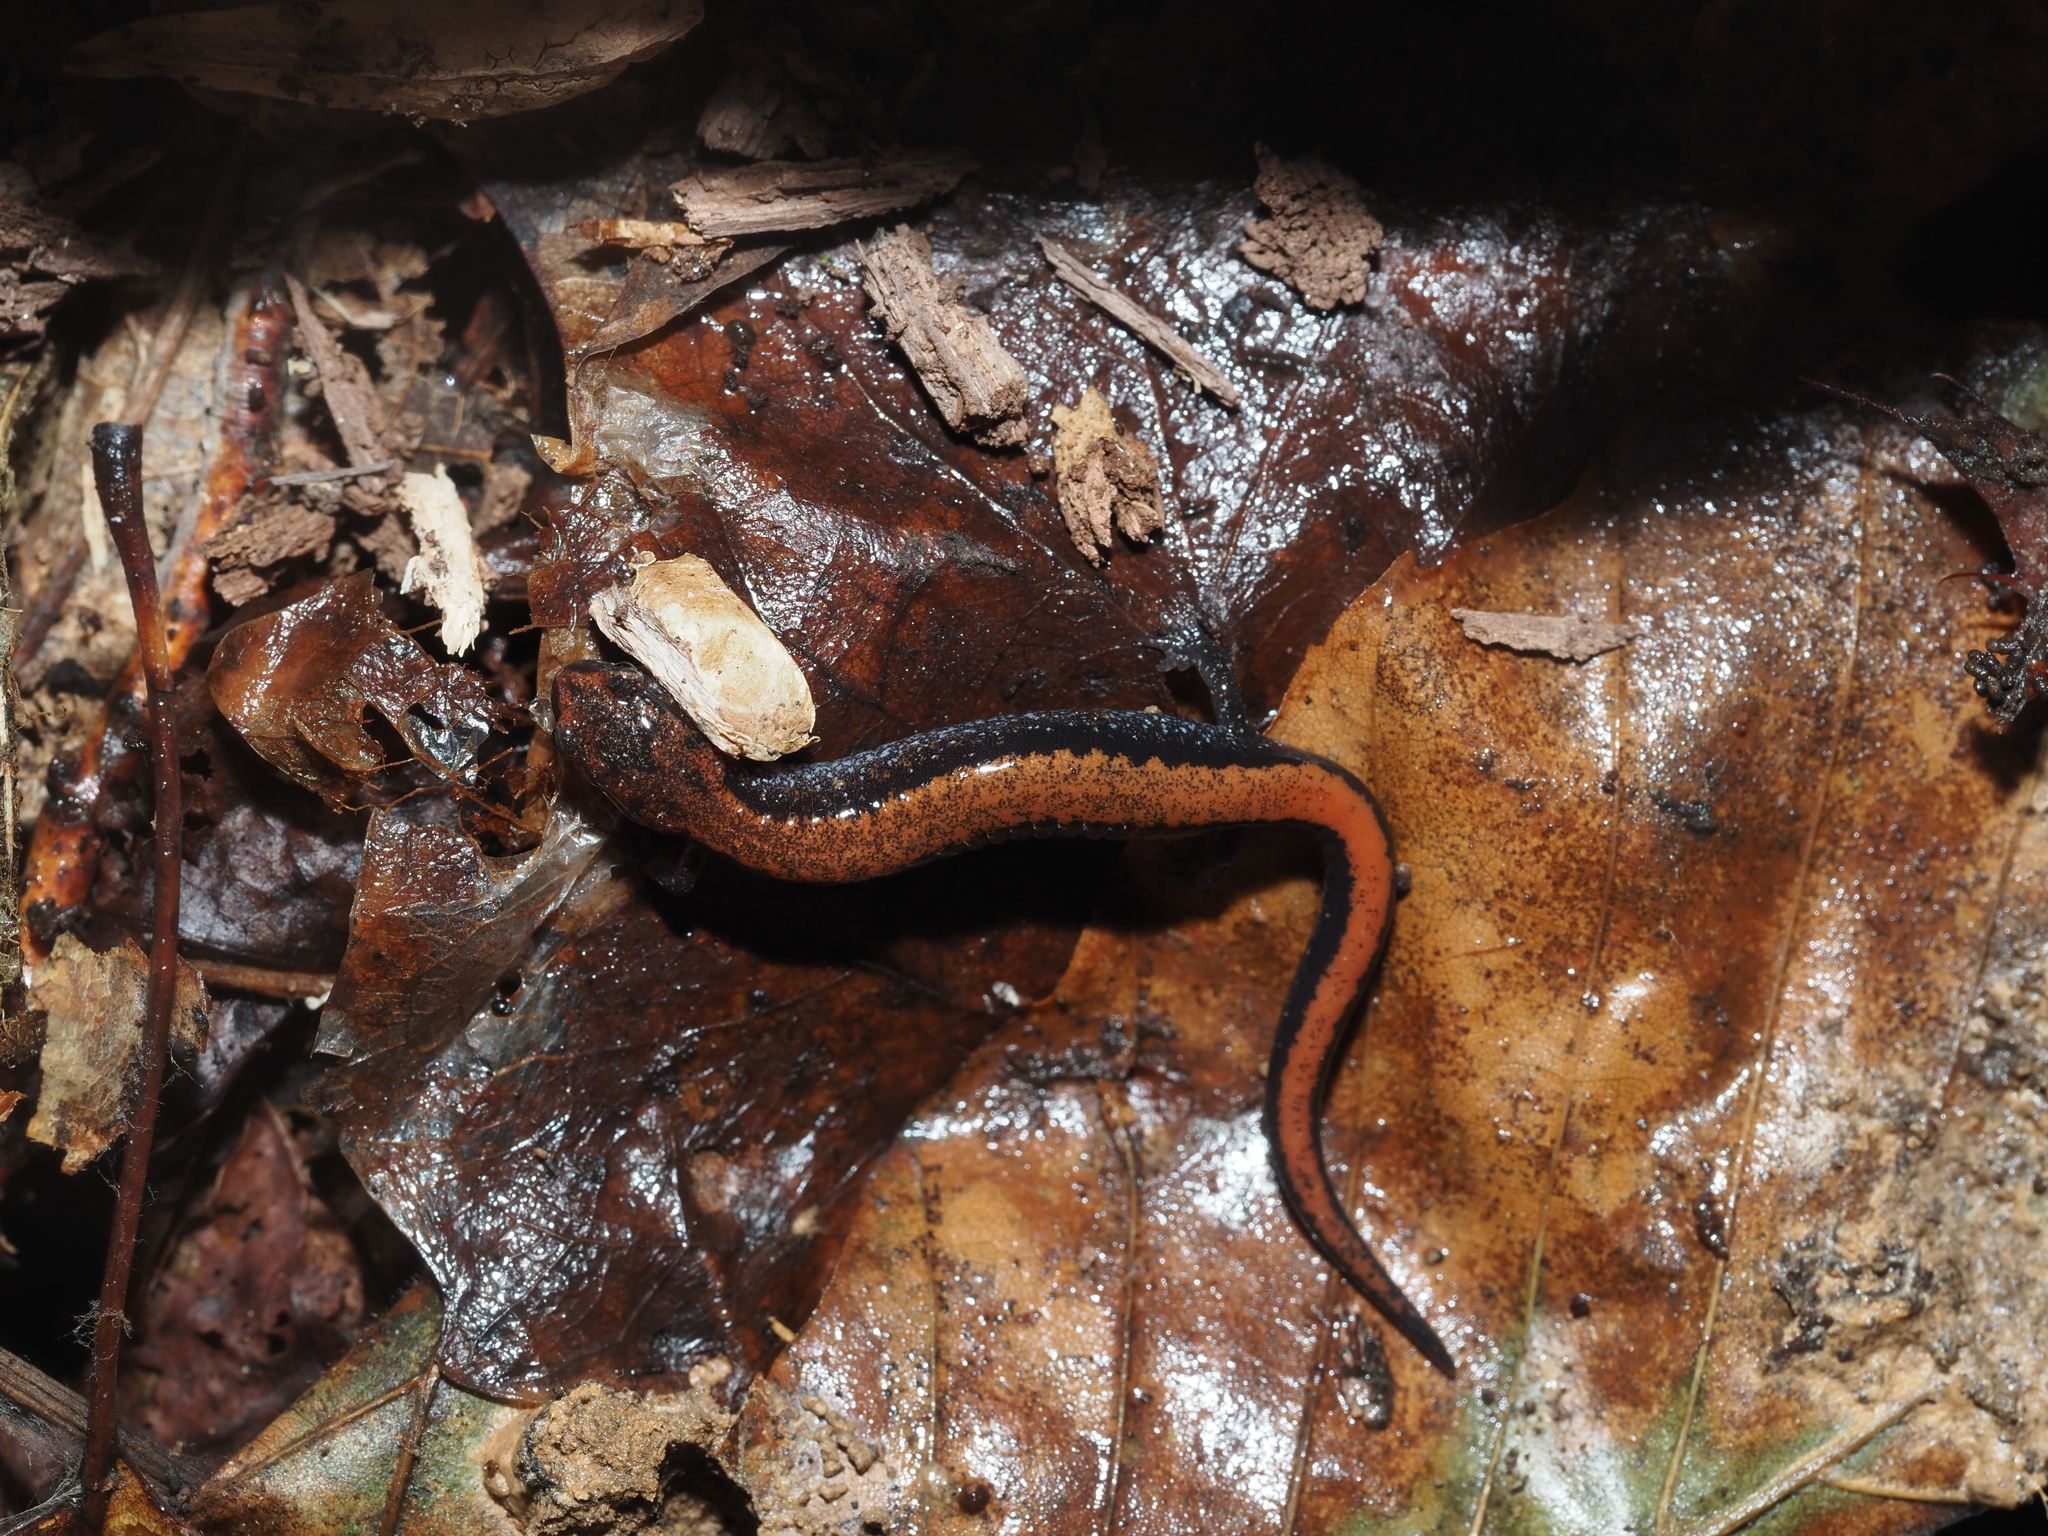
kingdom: Animalia
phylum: Chordata
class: Amphibia
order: Caudata
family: Plethodontidae
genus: Plethodon
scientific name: Plethodon cinereus
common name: Redback salamander
